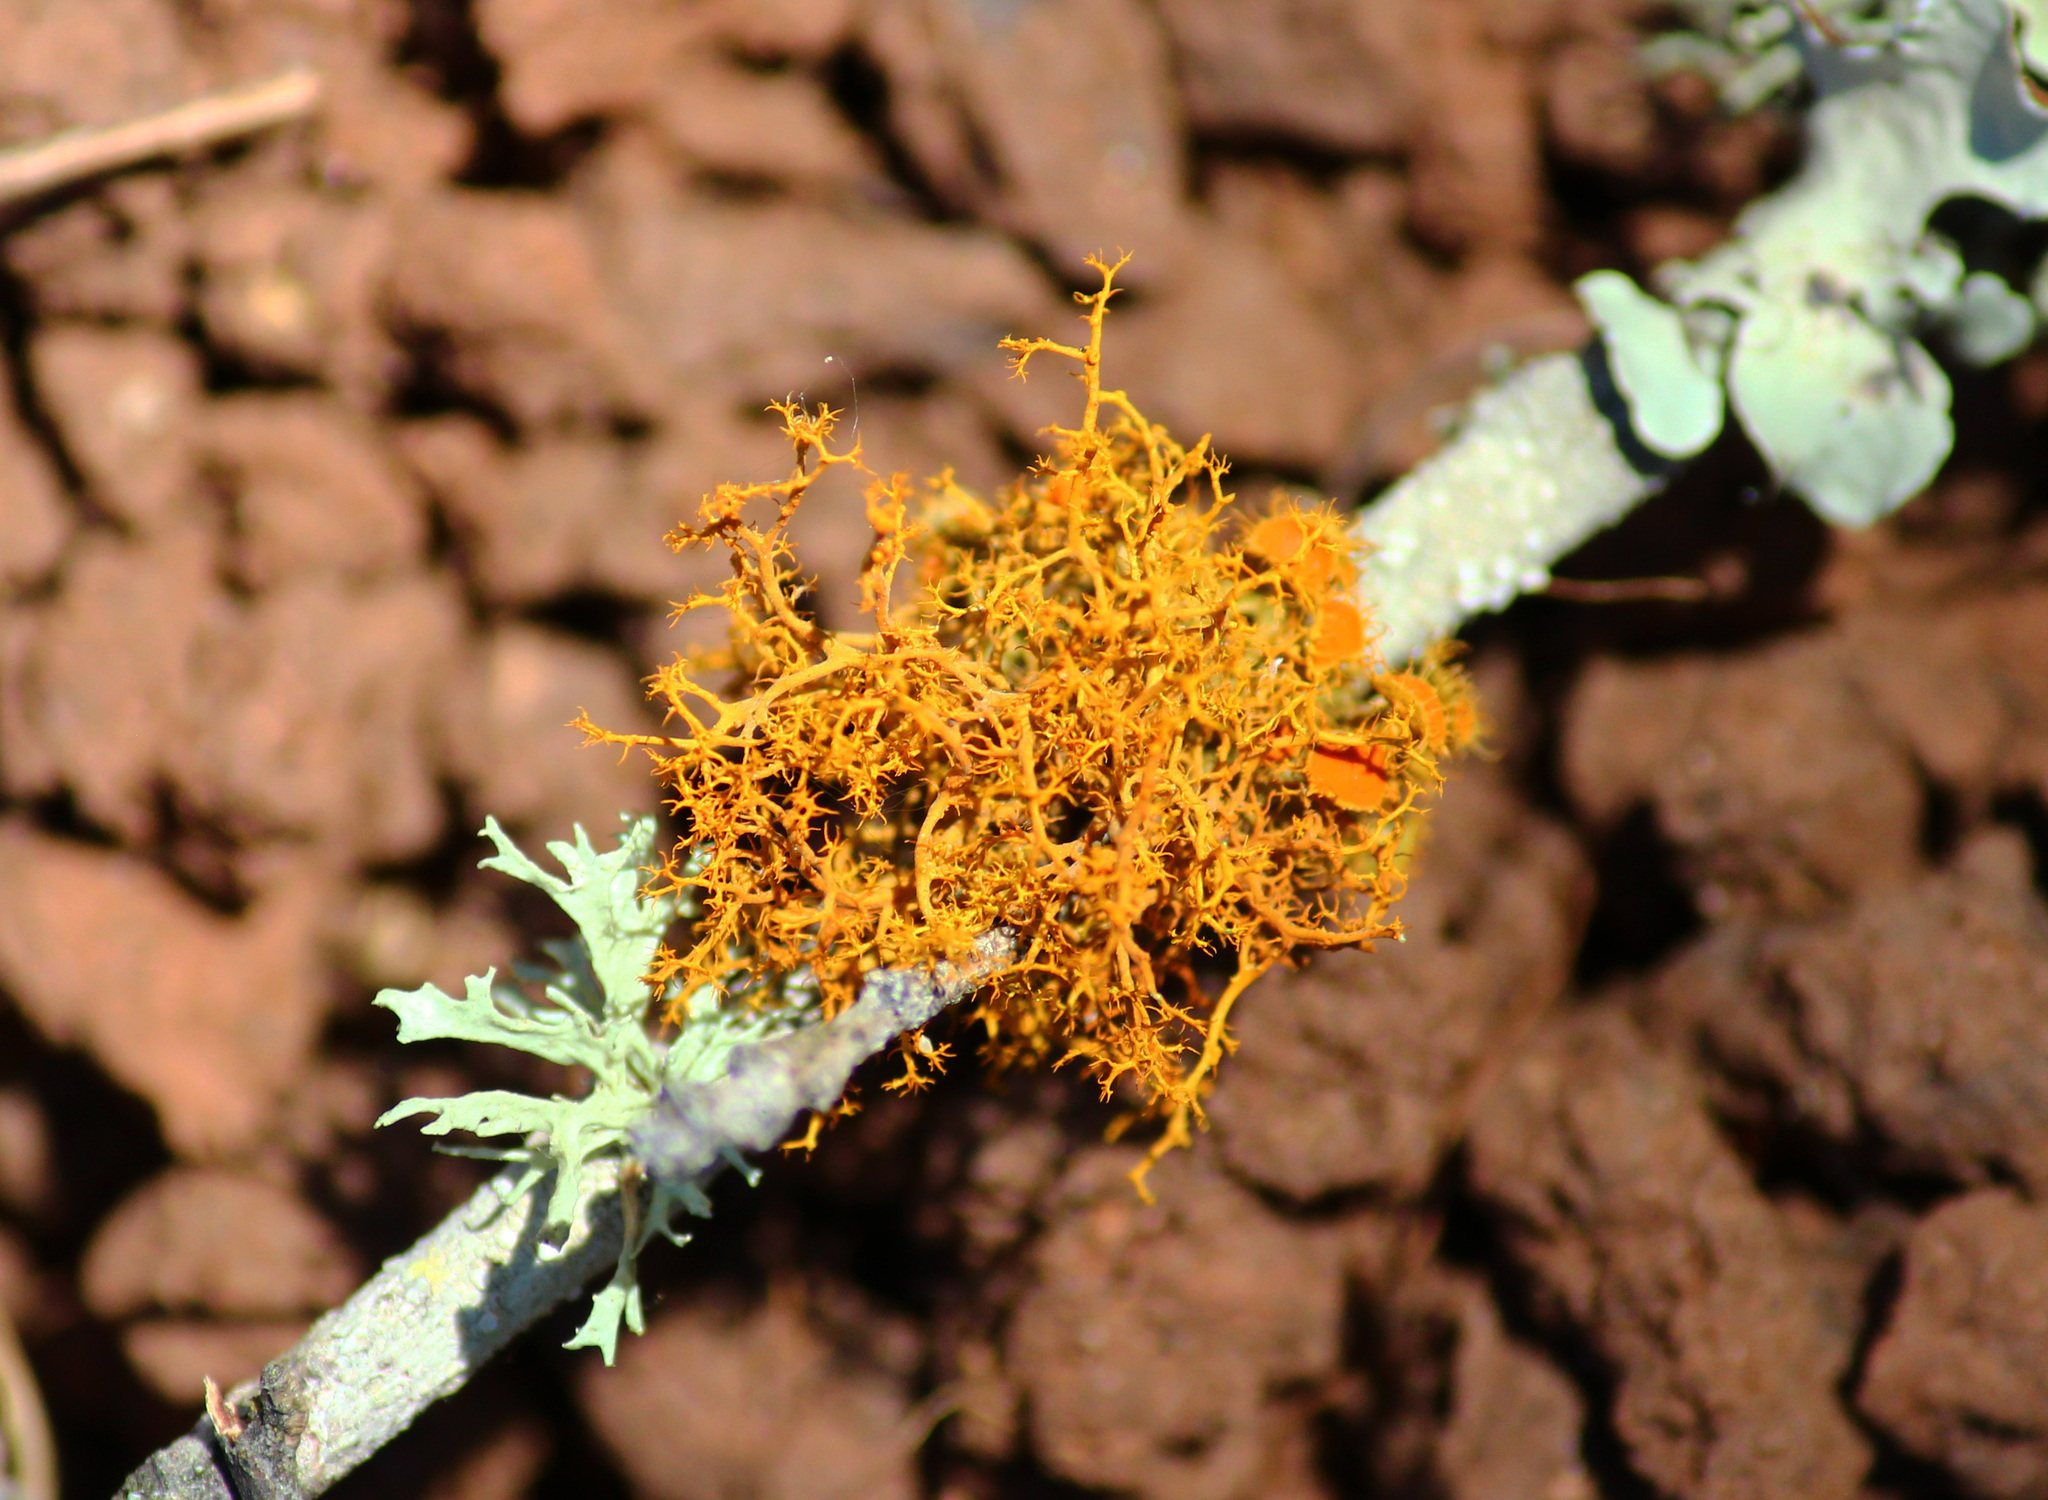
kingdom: Fungi
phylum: Ascomycota
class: Lecanoromycetes
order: Teloschistales
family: Teloschistaceae
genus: Niorma
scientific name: Niorma chrysophthalma
